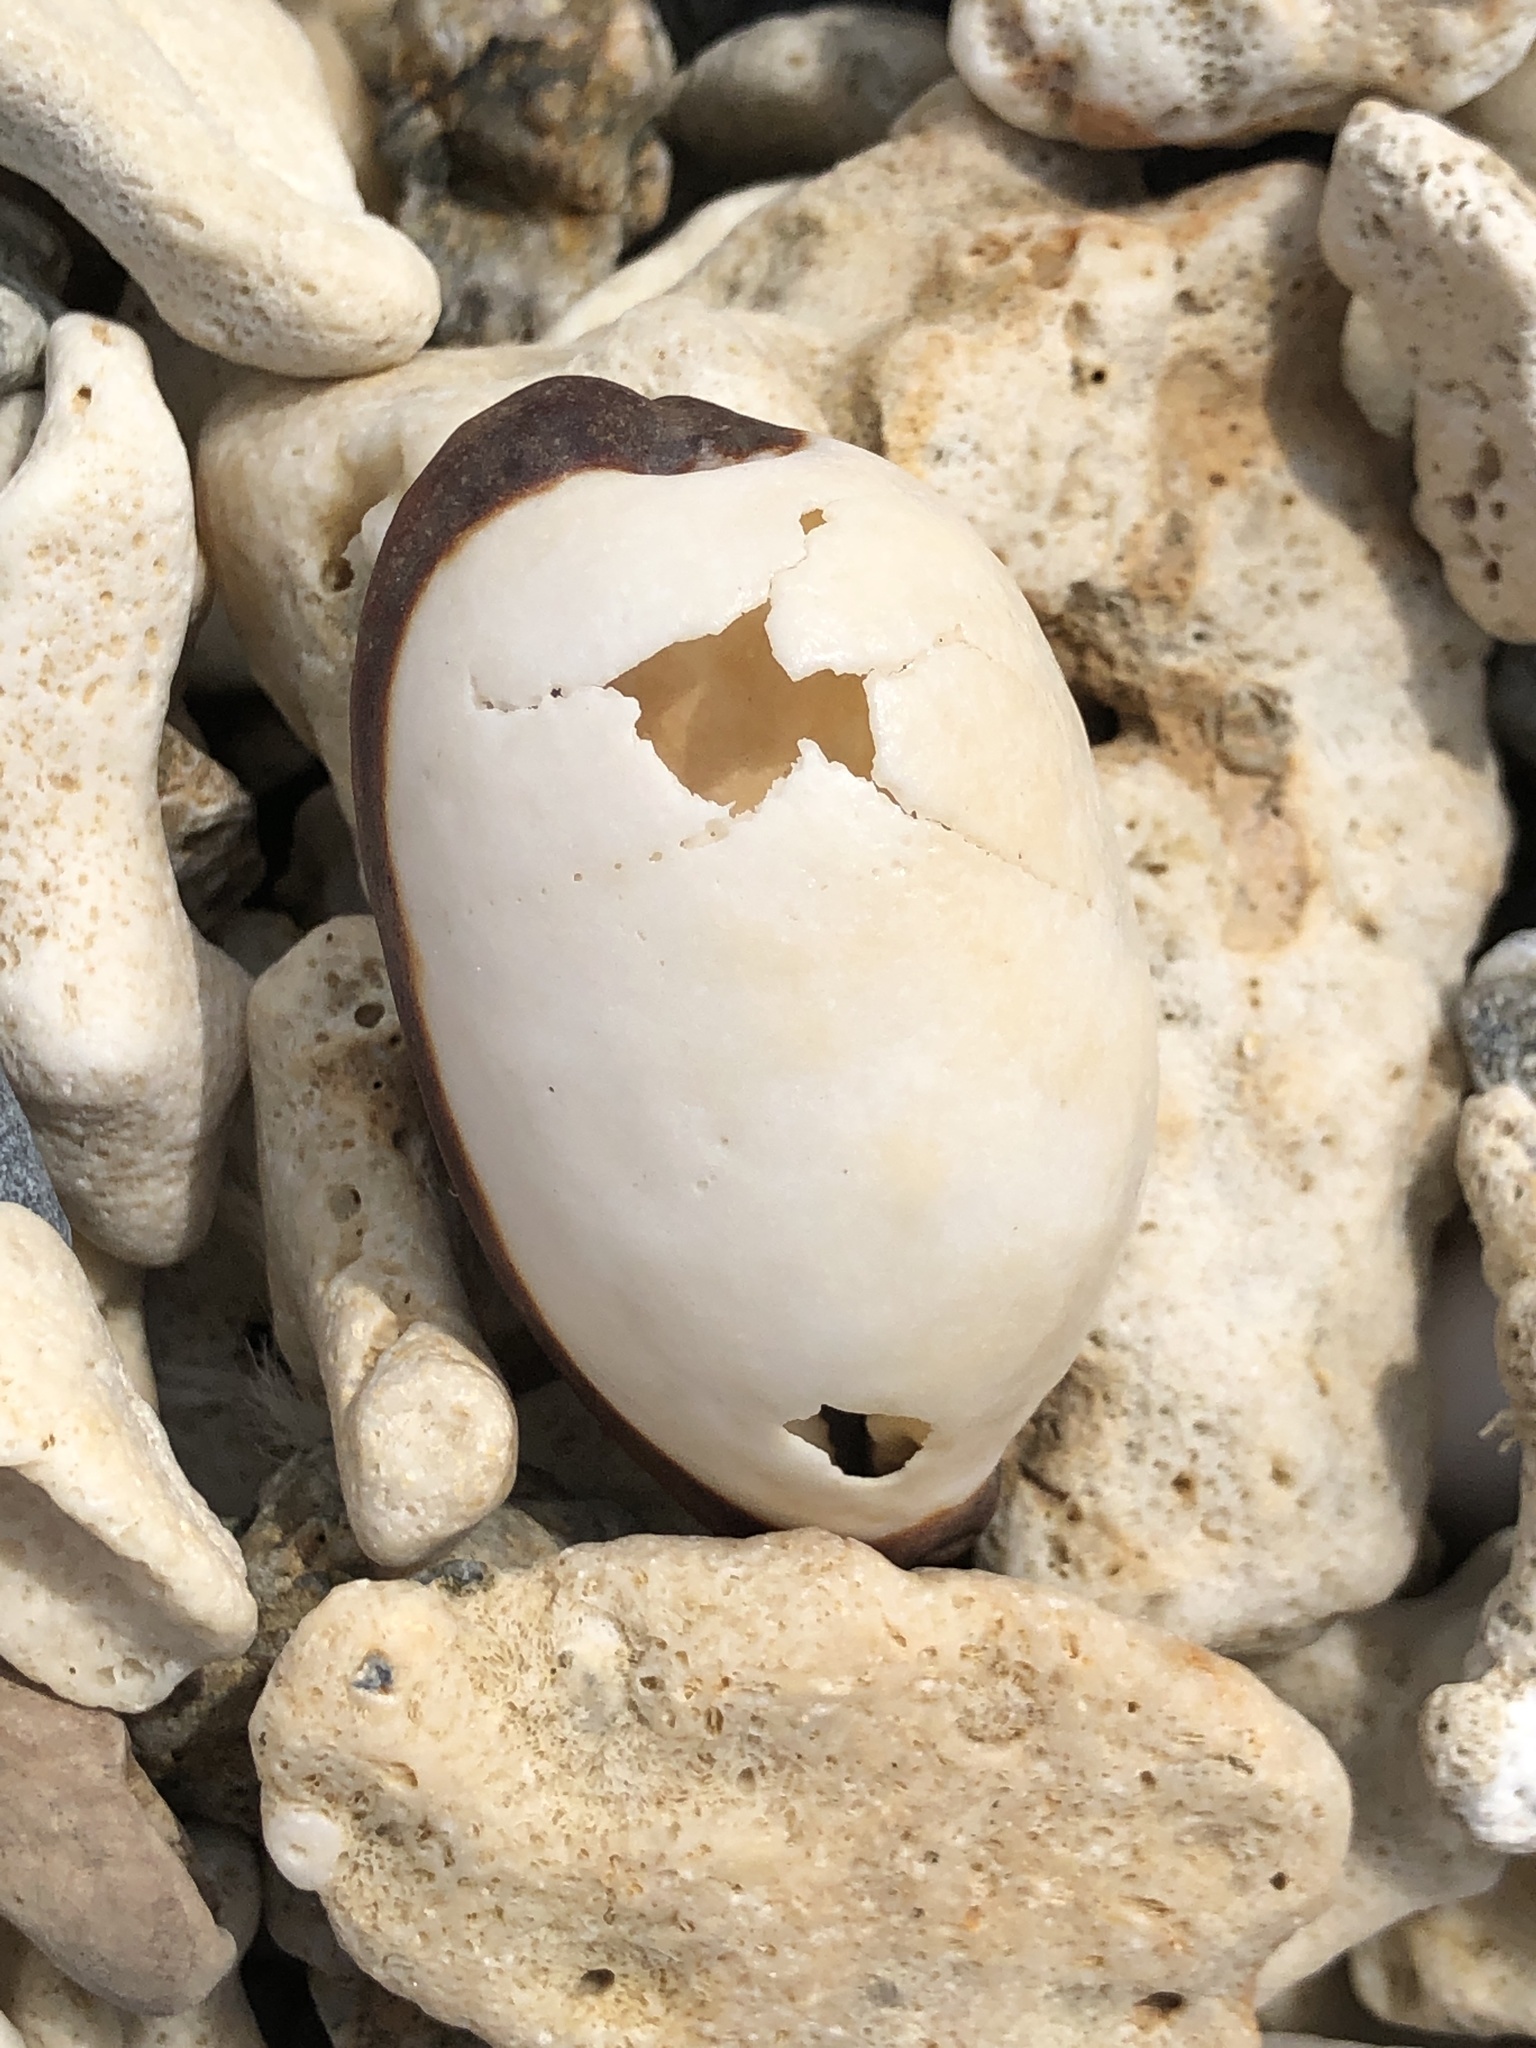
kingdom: Animalia
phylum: Mollusca
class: Gastropoda
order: Littorinimorpha
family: Cypraeidae
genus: Talparia
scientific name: Talparia talpa
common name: Mole cowrie
